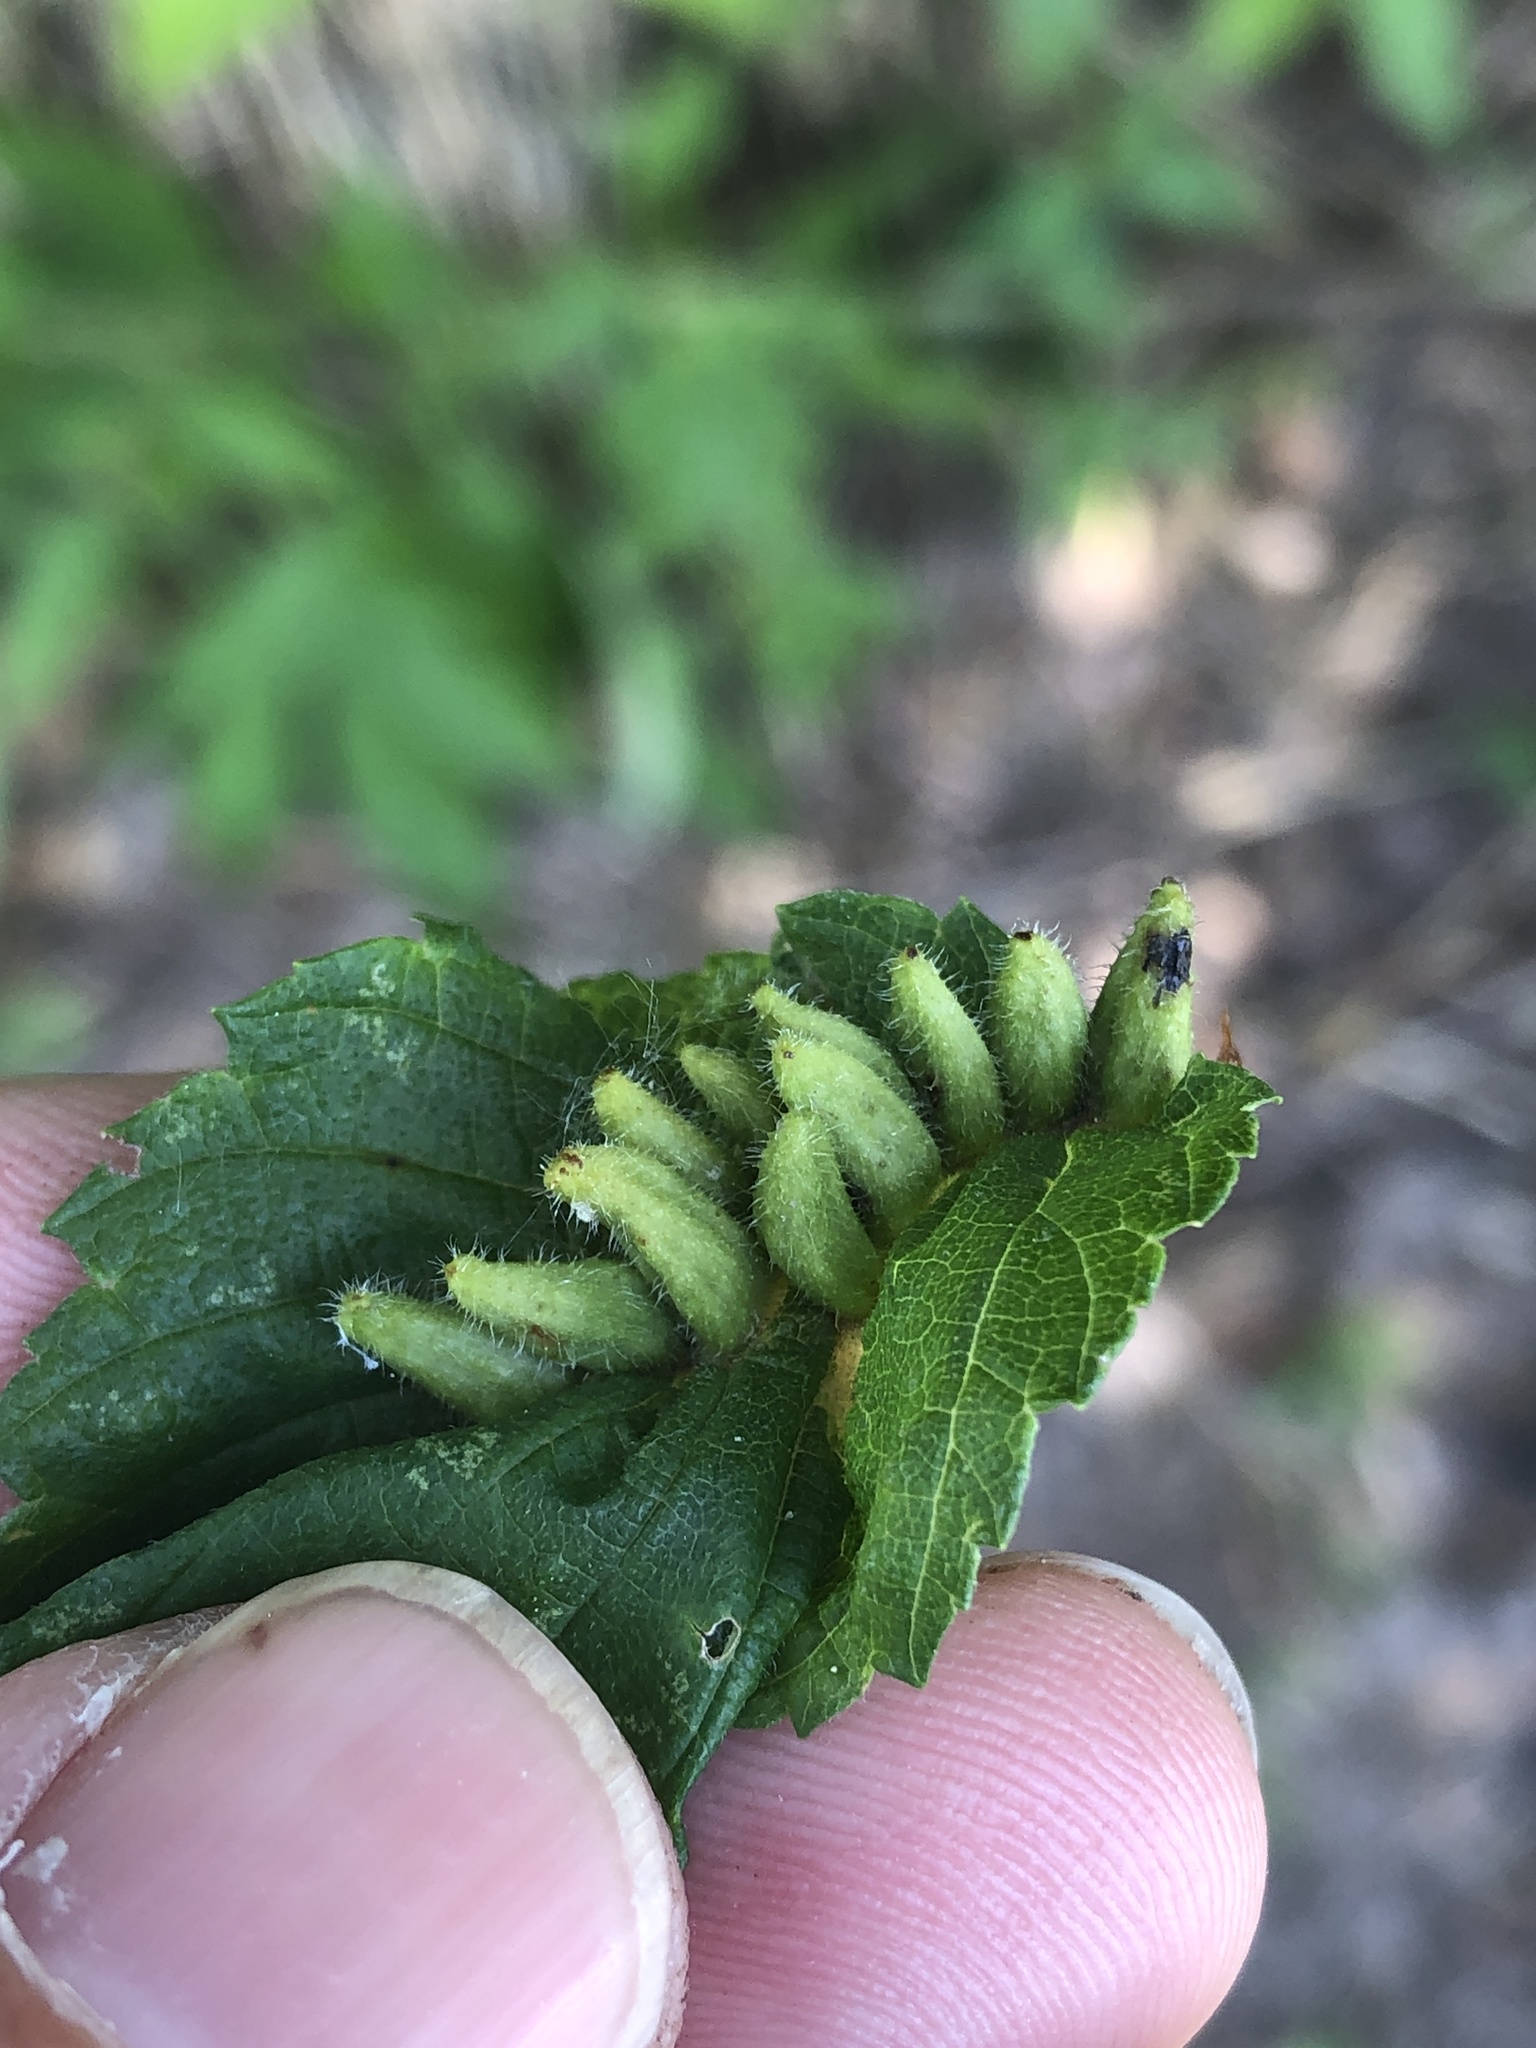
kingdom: Animalia
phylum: Arthropoda
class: Arachnida
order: Trombidiformes
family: Eriophyidae
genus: Aceria
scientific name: Aceria
